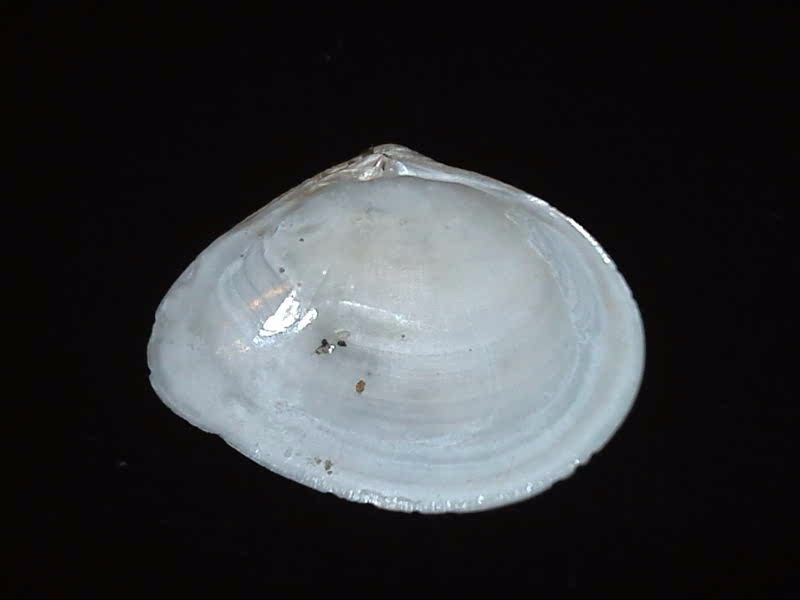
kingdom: Animalia
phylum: Mollusca
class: Bivalvia
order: Cardiida
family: Semelidae
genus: Leptomya
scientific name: Leptomya retiaria
